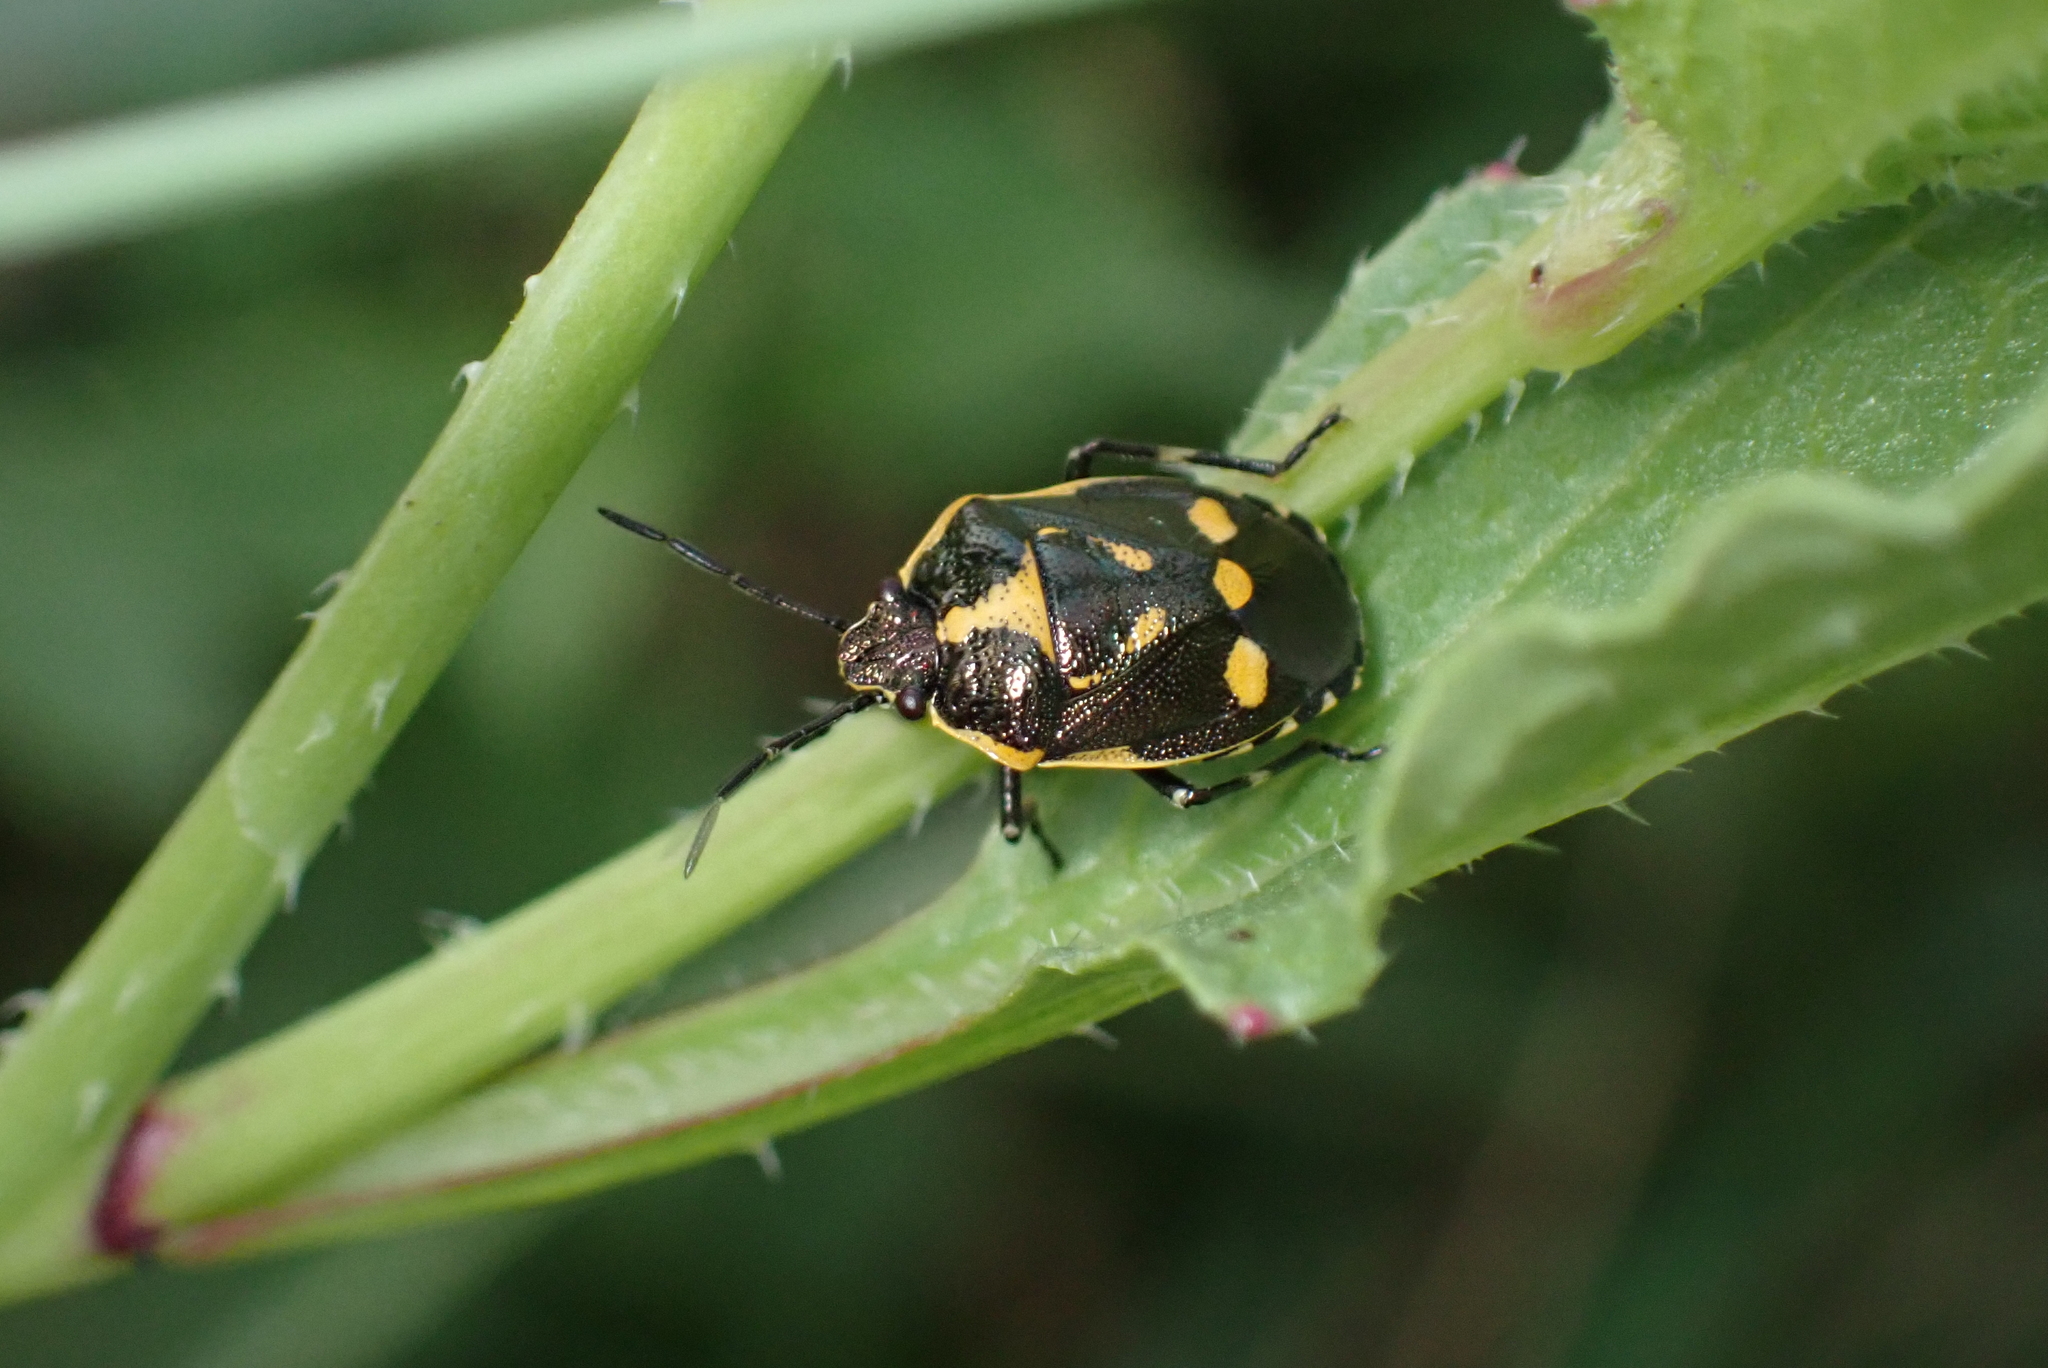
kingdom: Animalia
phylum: Arthropoda
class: Insecta
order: Hemiptera
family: Pentatomidae
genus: Eurydema
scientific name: Eurydema oleracea
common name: Cabbage bug
